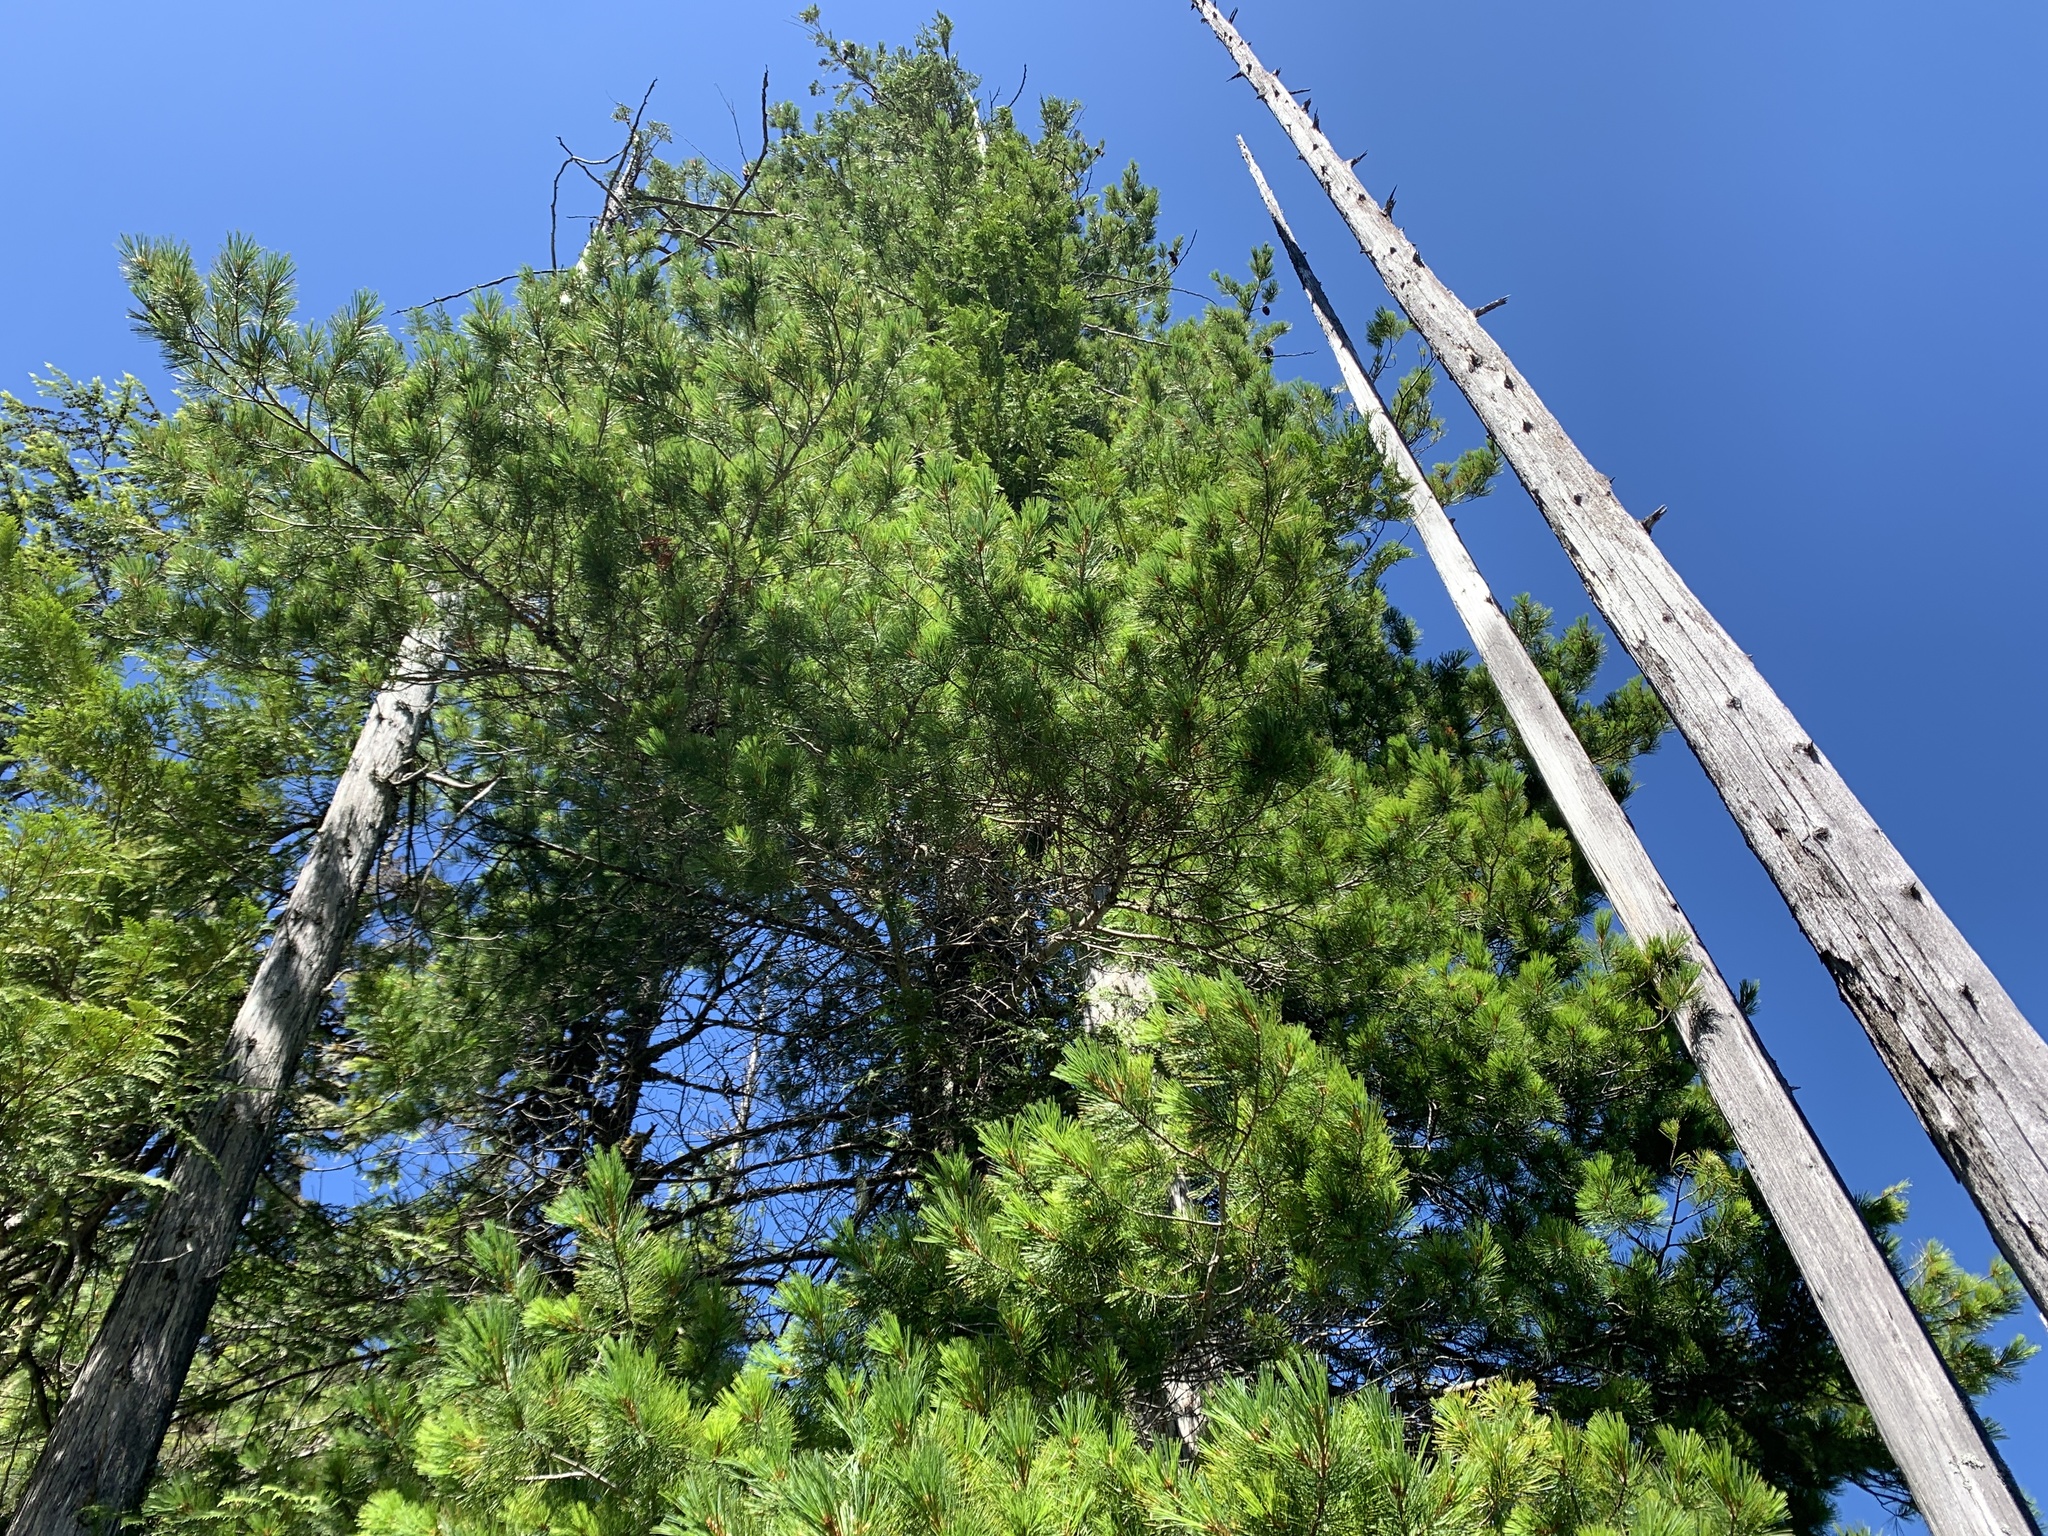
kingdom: Plantae
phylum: Tracheophyta
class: Pinopsida
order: Pinales
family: Pinaceae
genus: Pinus
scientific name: Pinus monticola
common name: Western white pine
